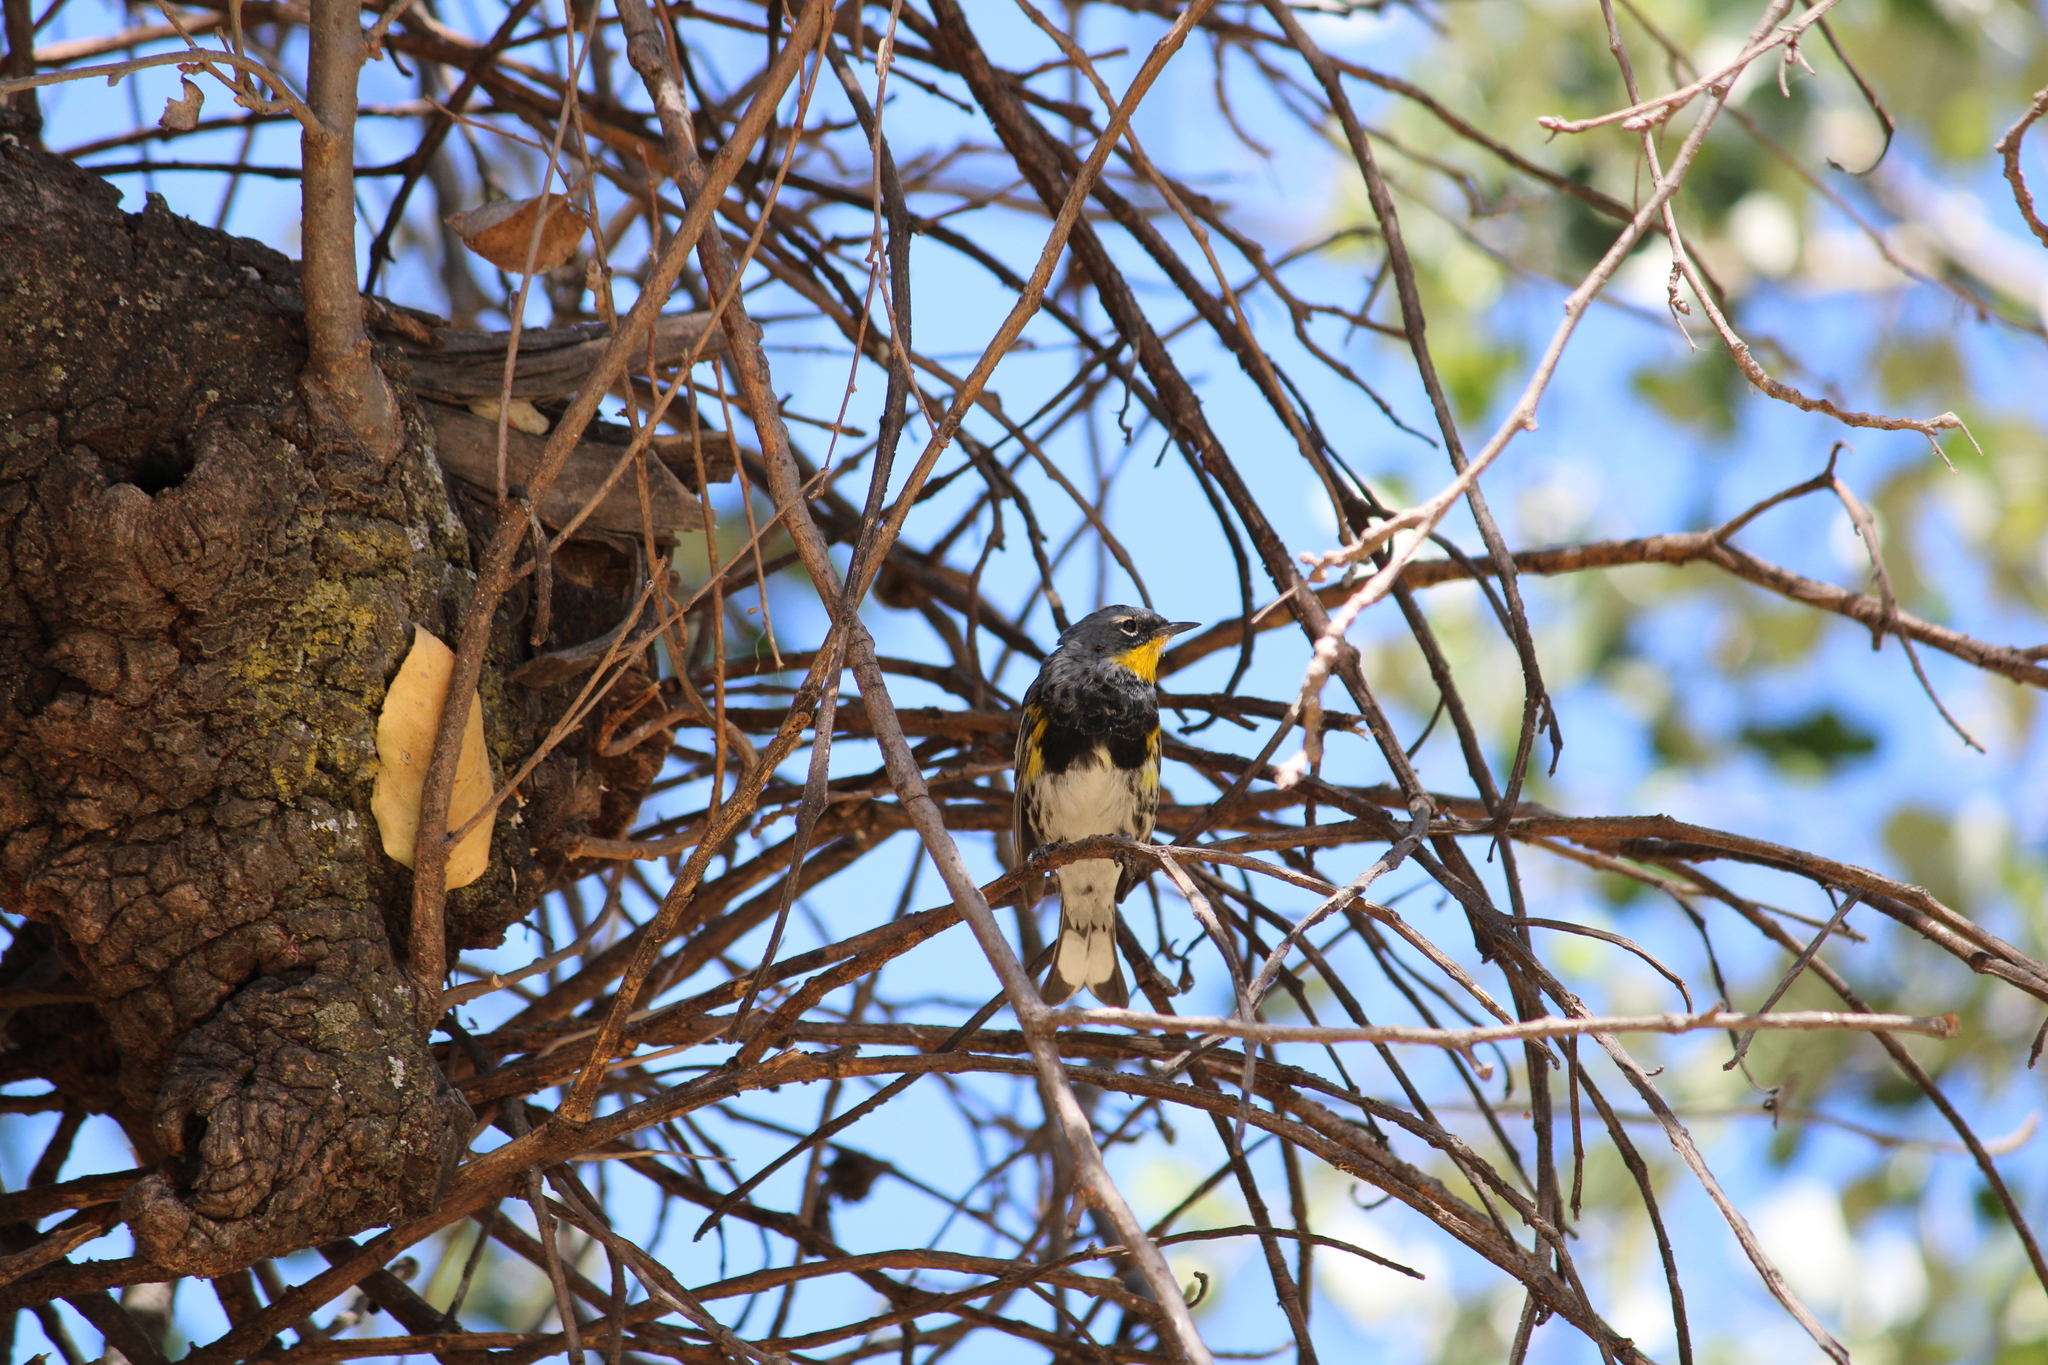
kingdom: Animalia
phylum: Chordata
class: Aves
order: Passeriformes
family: Parulidae
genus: Setophaga
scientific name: Setophaga auduboni
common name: Audubon's warbler
